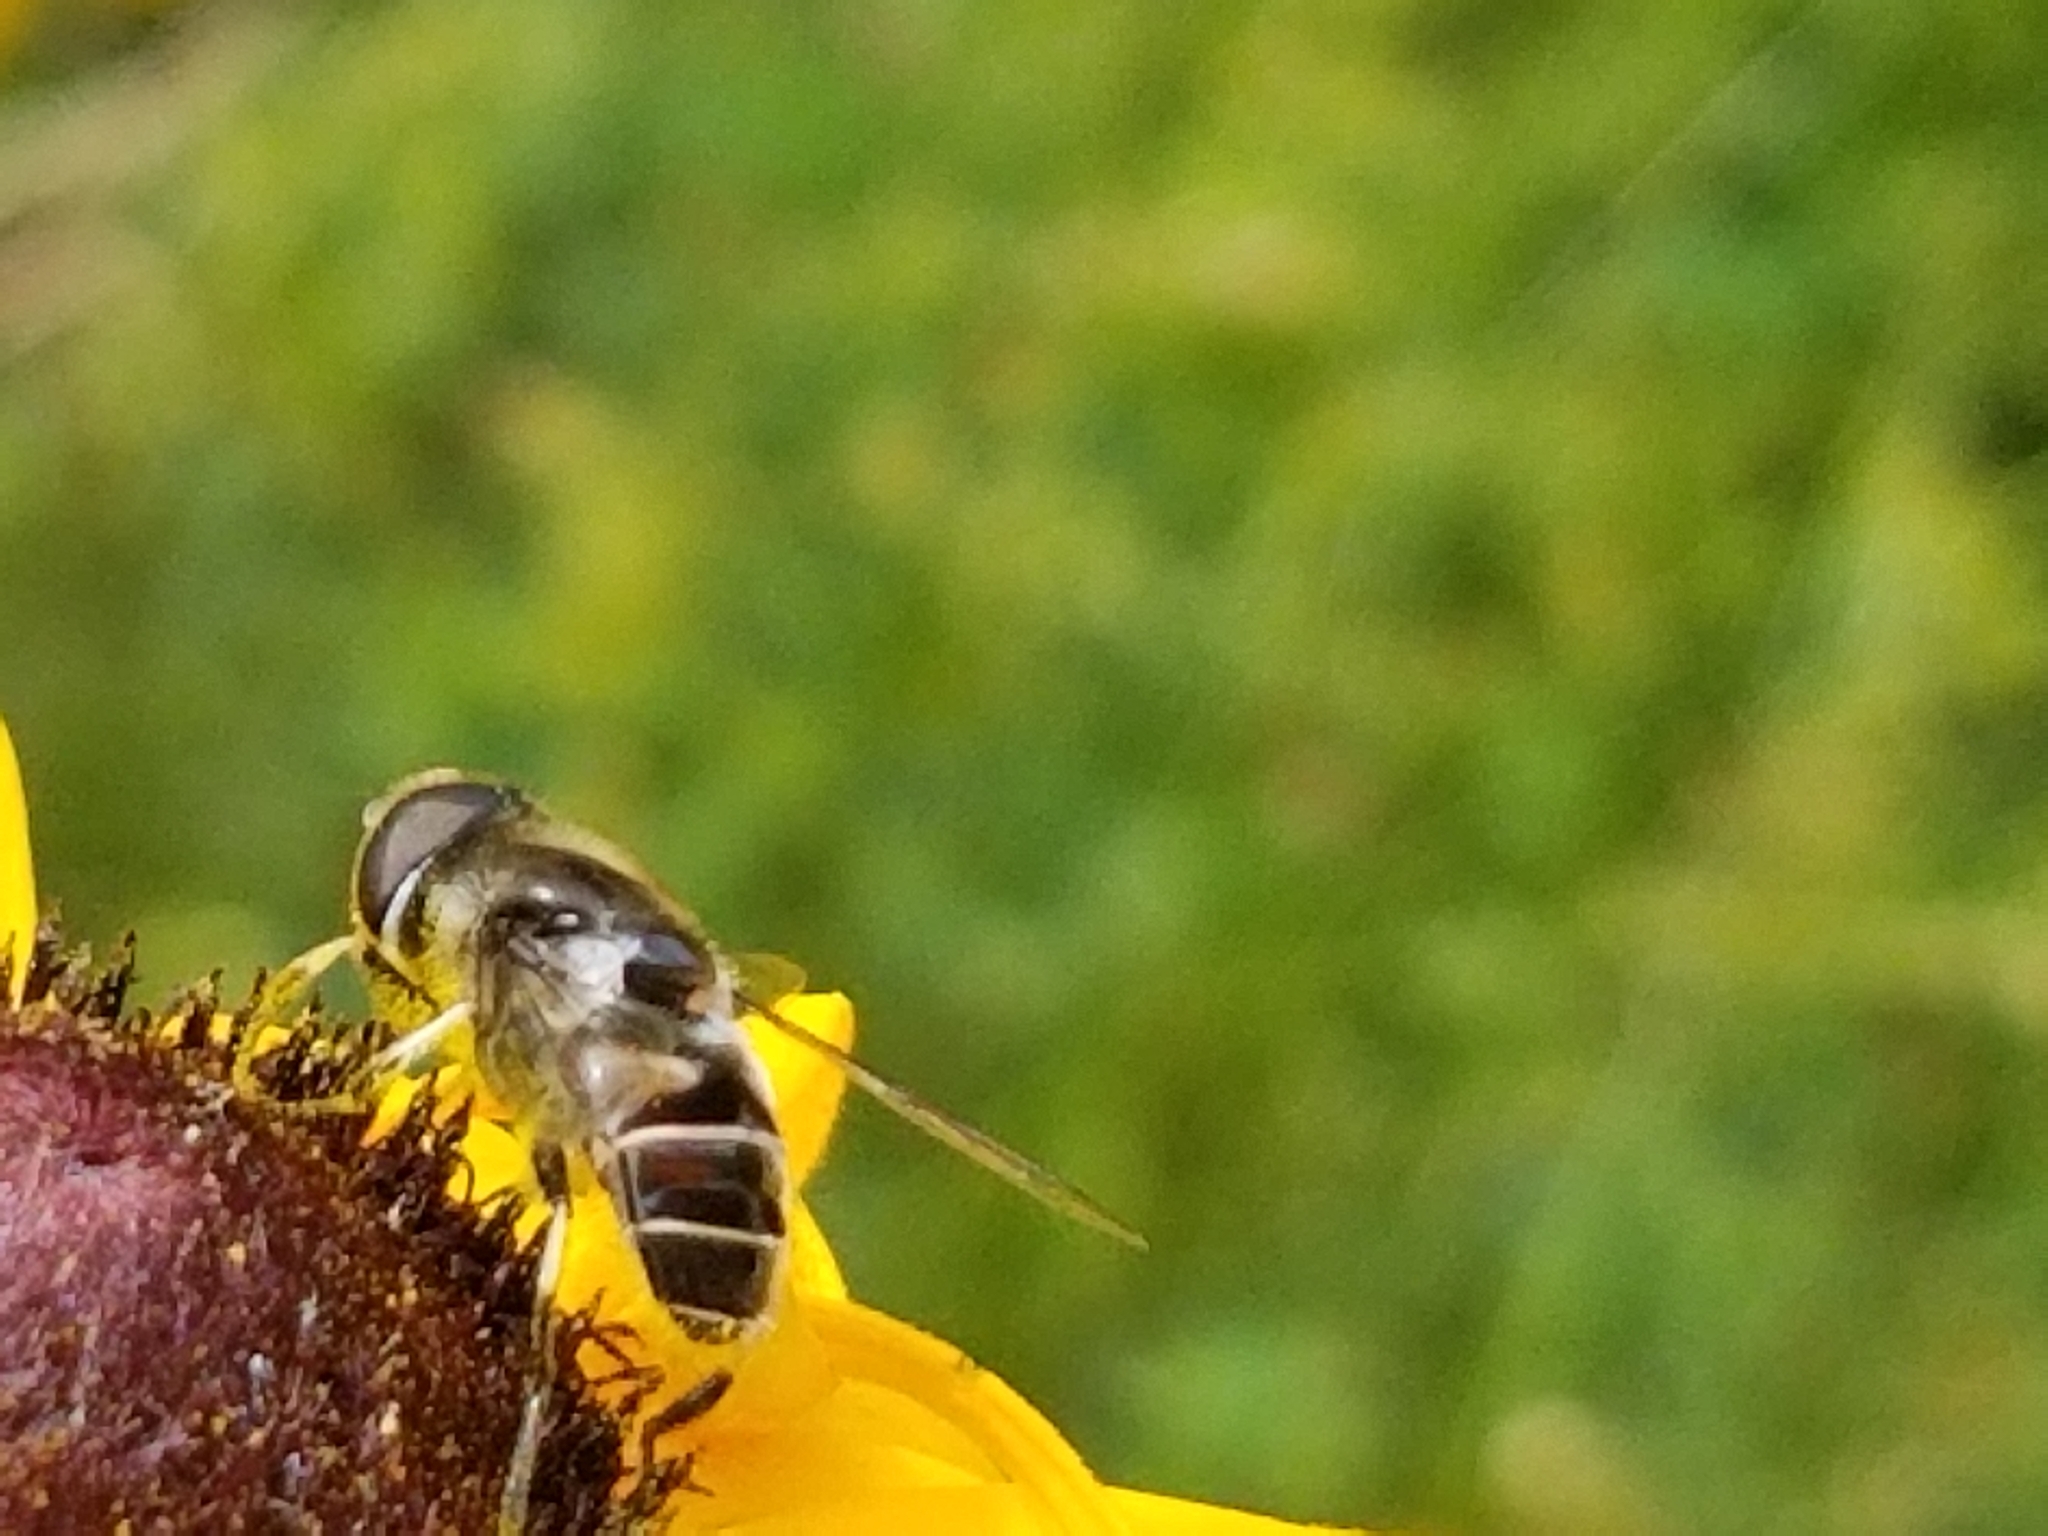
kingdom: Animalia
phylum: Arthropoda
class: Insecta
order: Diptera
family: Syrphidae
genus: Eristalis
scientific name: Eristalis dimidiata
